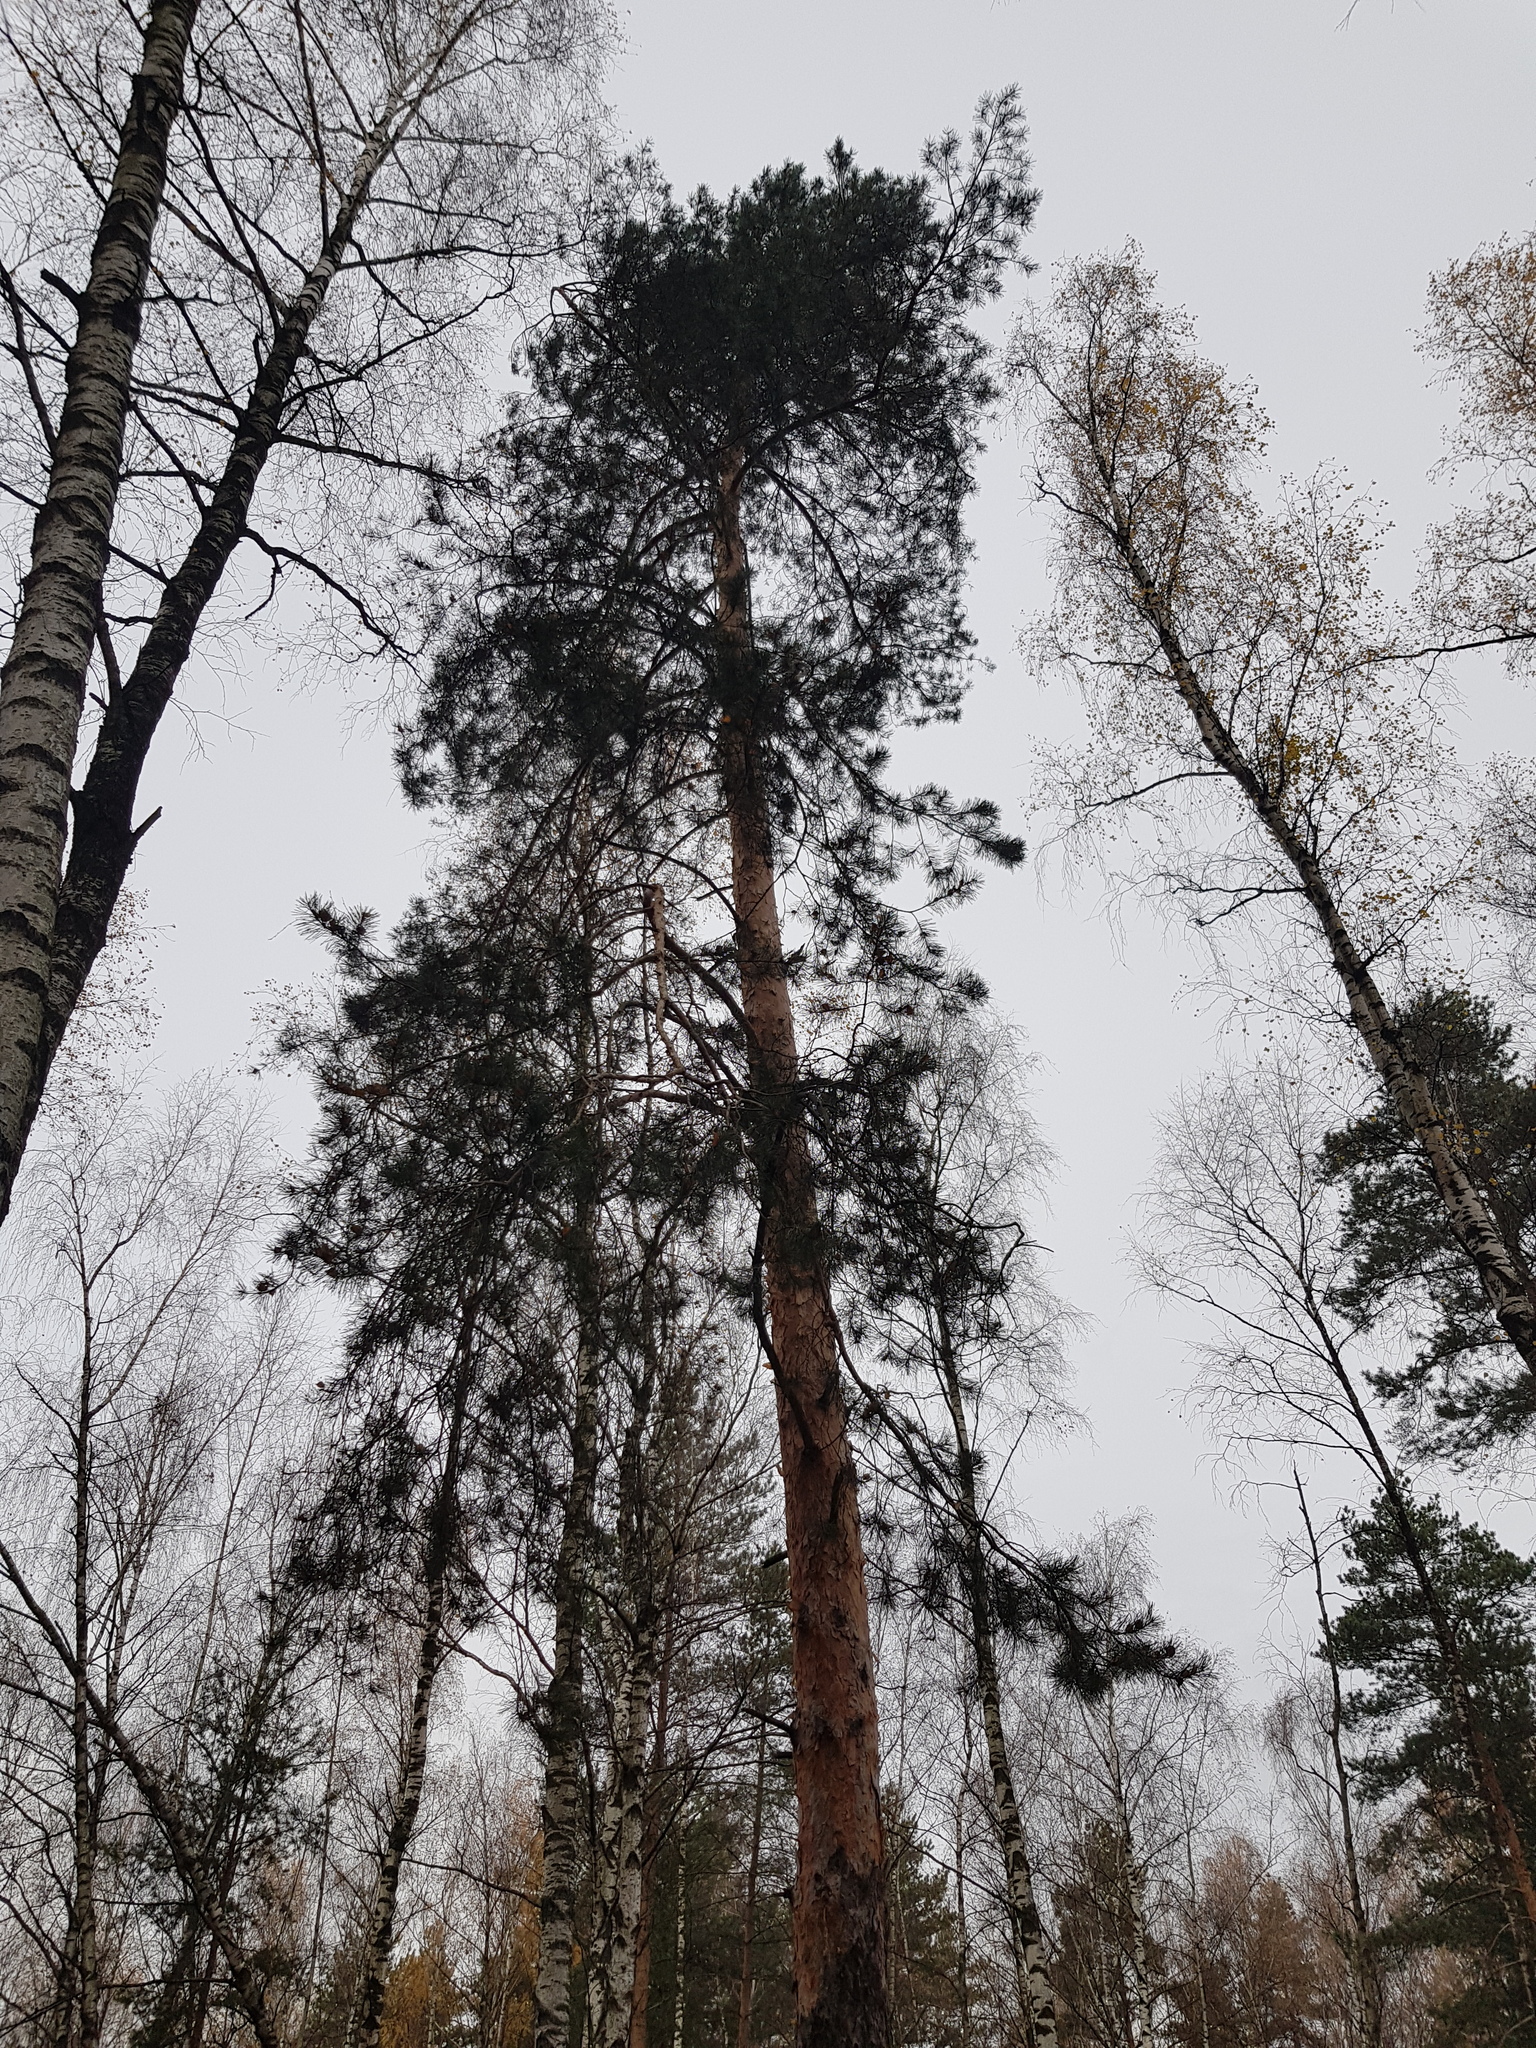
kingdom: Plantae
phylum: Tracheophyta
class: Pinopsida
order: Pinales
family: Pinaceae
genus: Pinus
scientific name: Pinus sylvestris
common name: Scots pine
